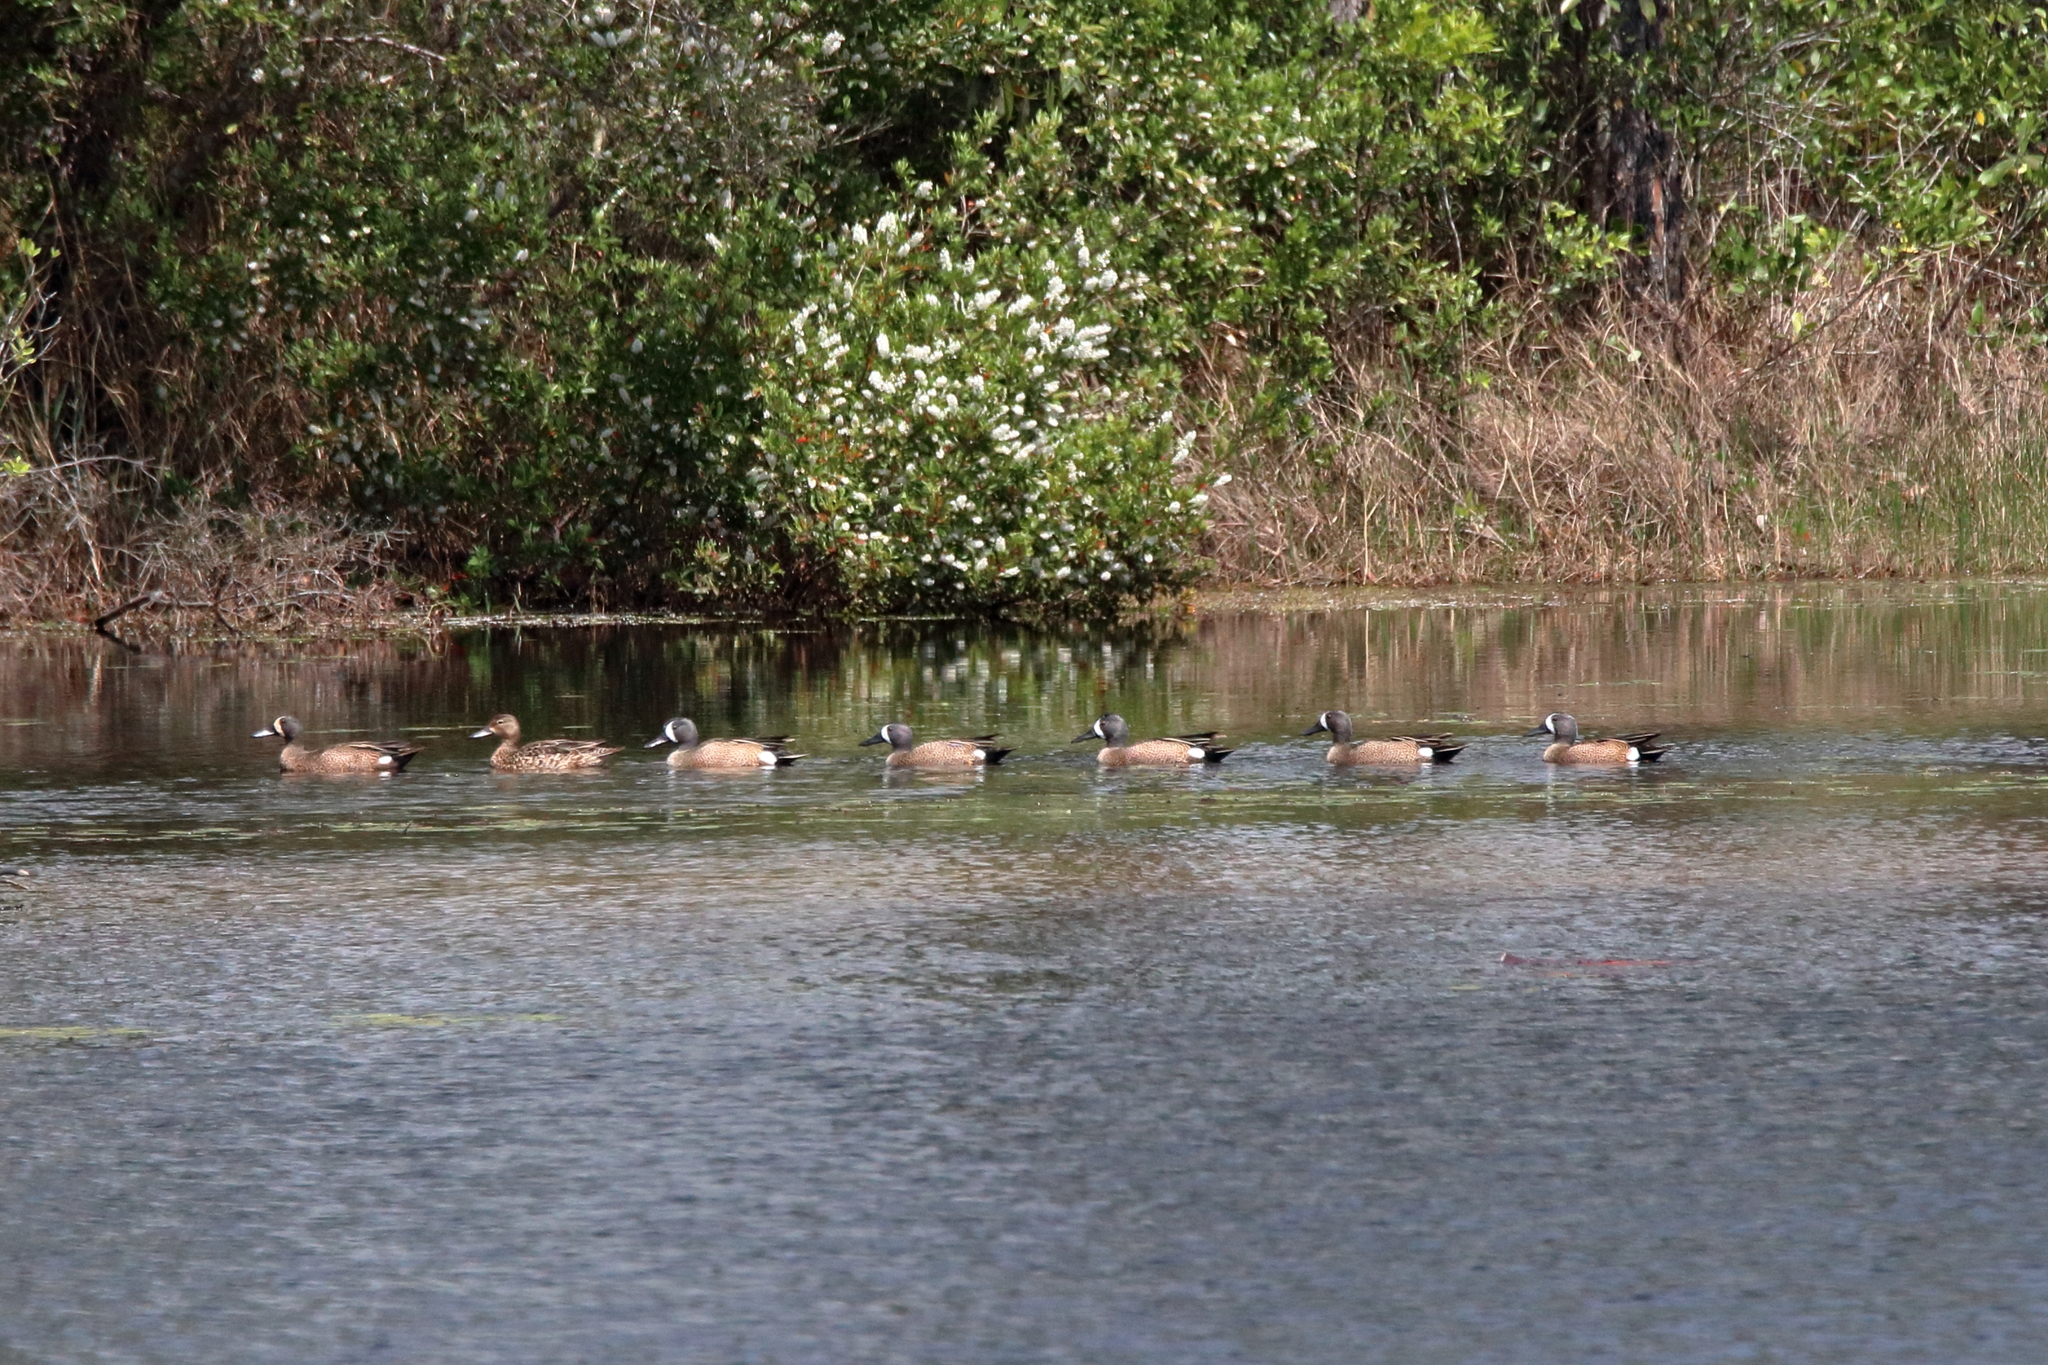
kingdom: Animalia
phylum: Chordata
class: Aves
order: Anseriformes
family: Anatidae
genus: Spatula
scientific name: Spatula discors
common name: Blue-winged teal
